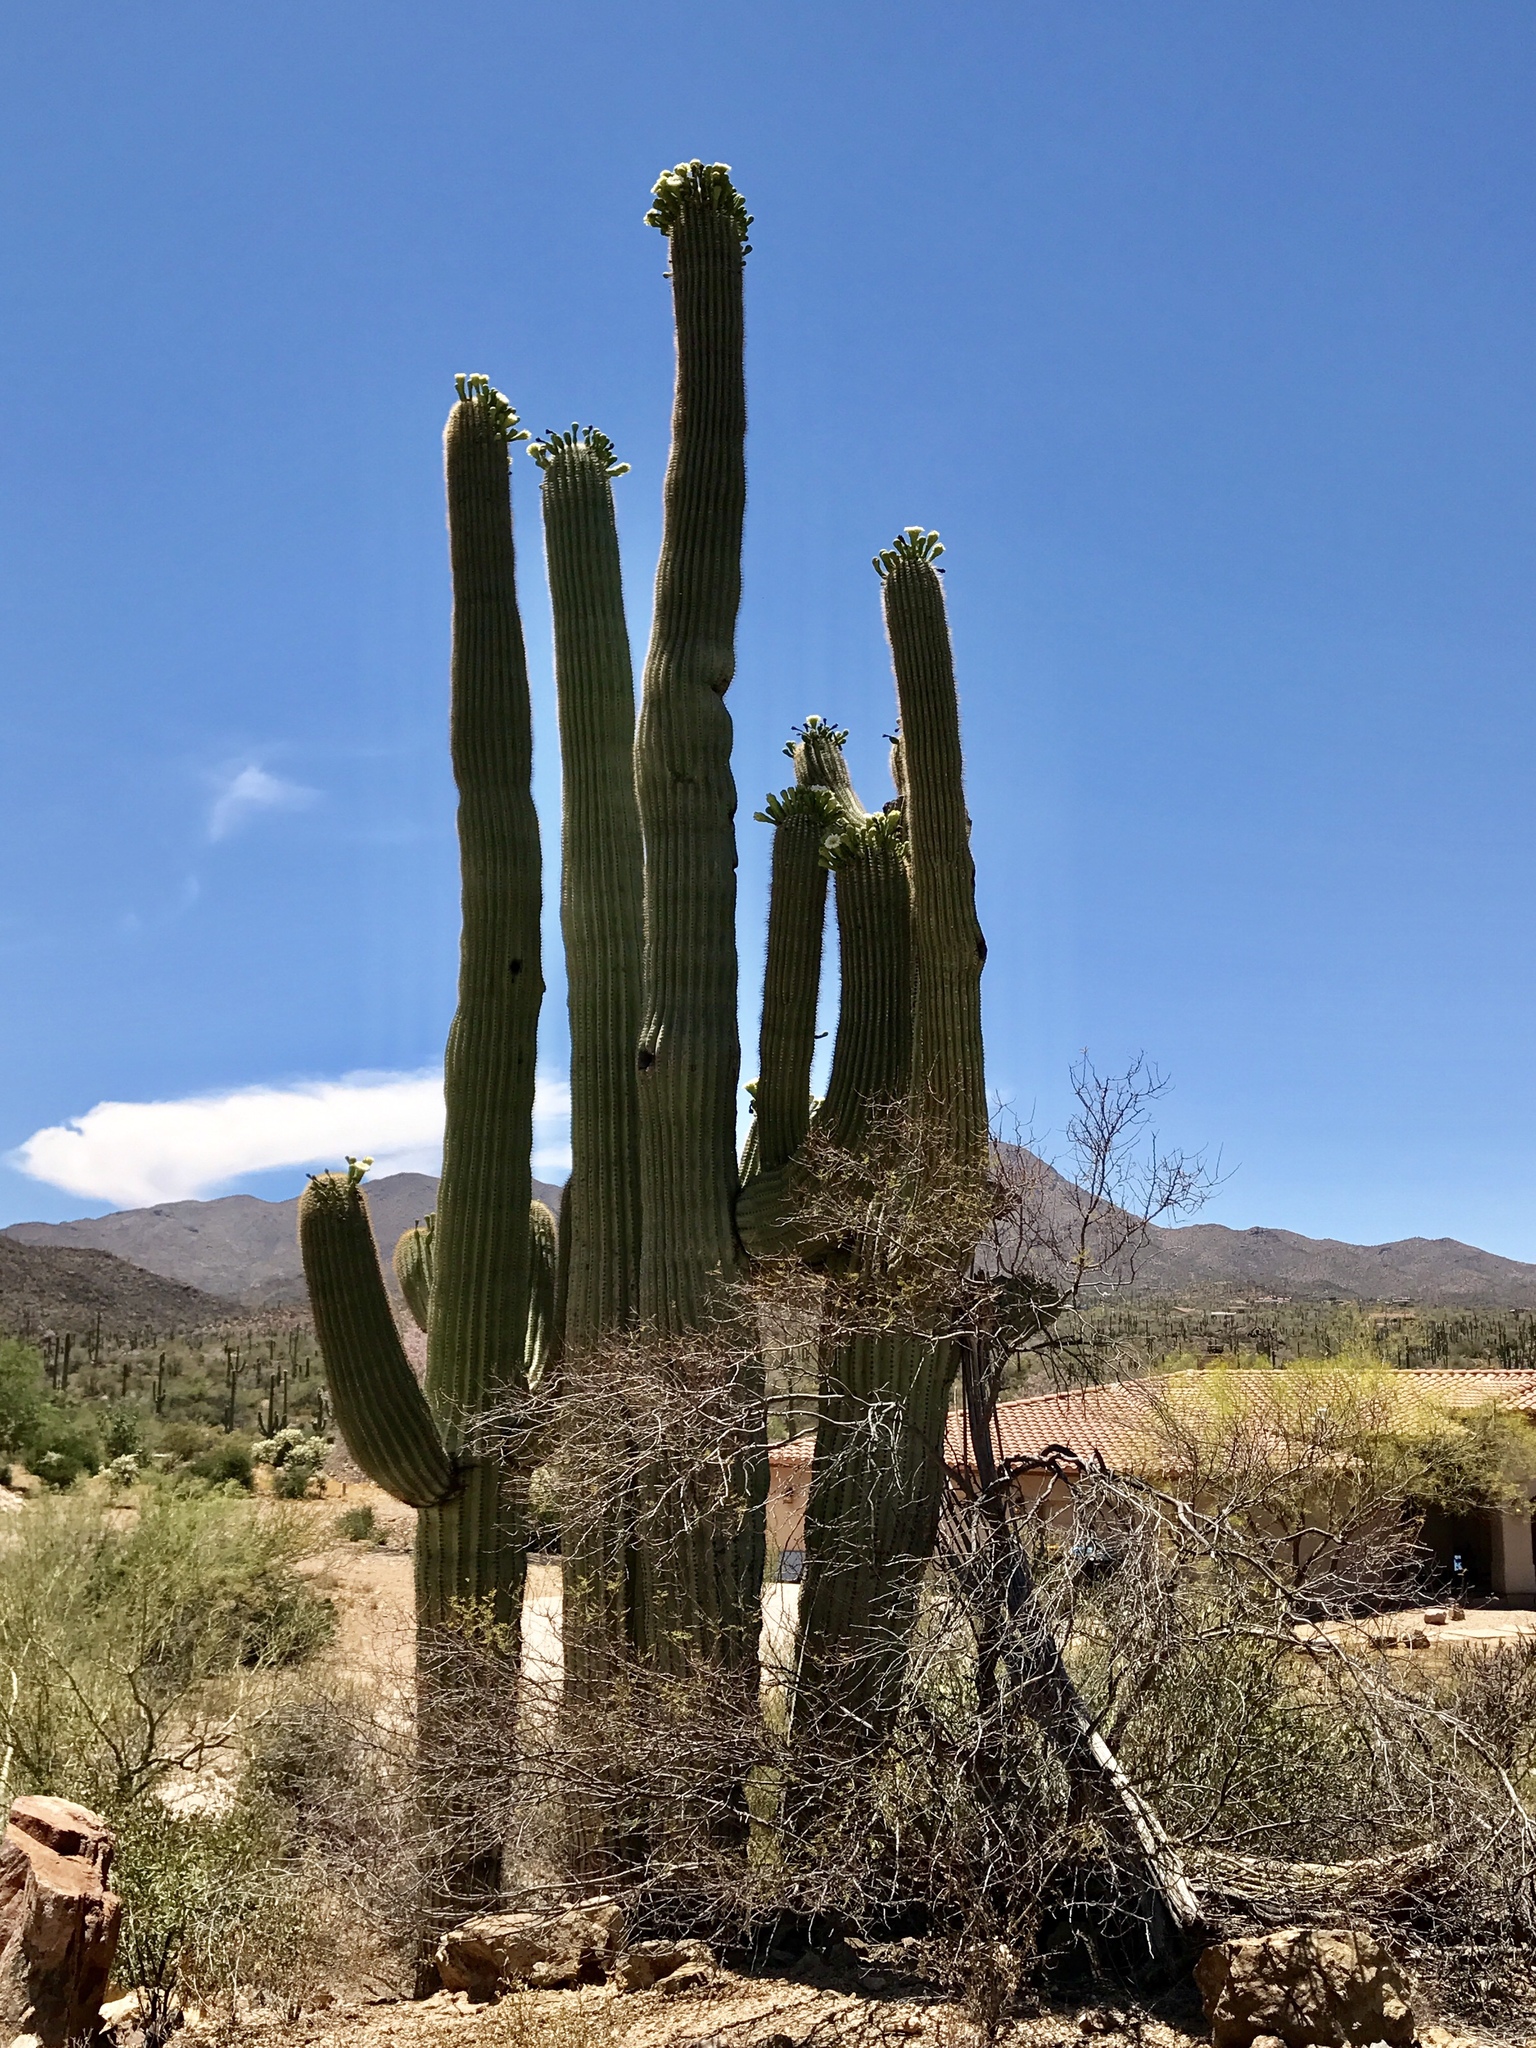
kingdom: Plantae
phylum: Tracheophyta
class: Magnoliopsida
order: Caryophyllales
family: Cactaceae
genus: Carnegiea
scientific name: Carnegiea gigantea
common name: Saguaro
